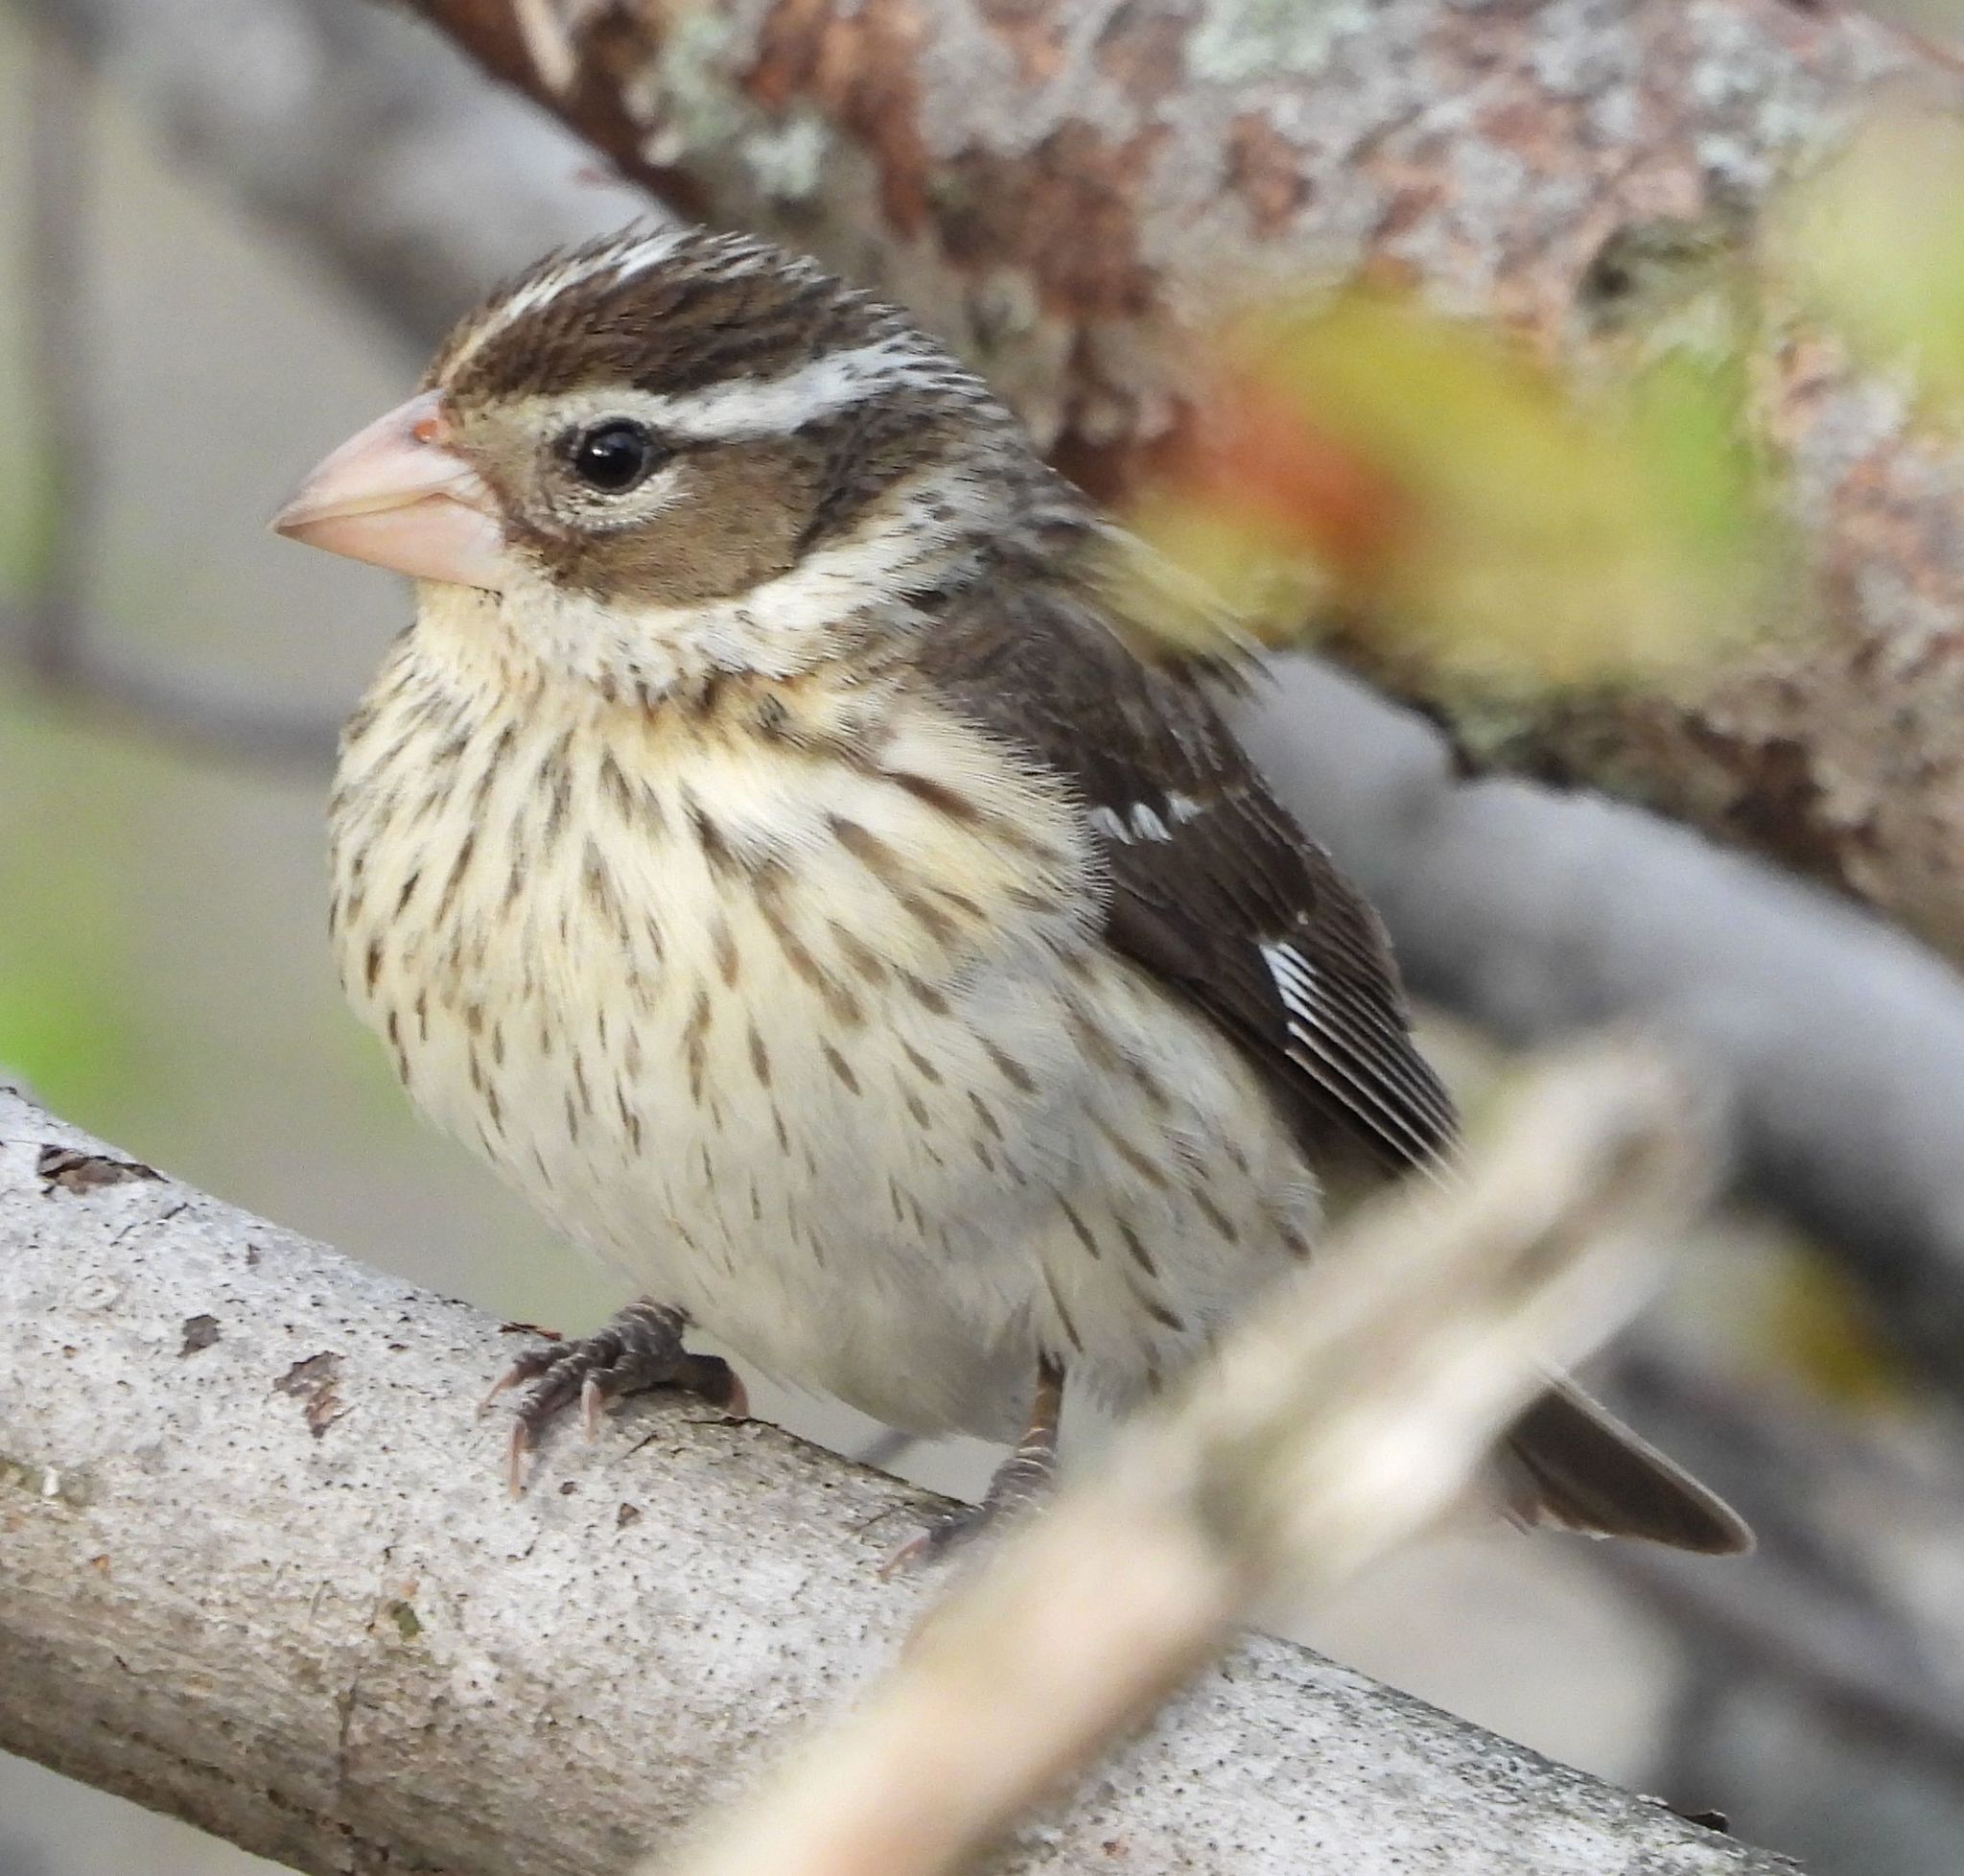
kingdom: Animalia
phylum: Chordata
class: Aves
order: Passeriformes
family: Cardinalidae
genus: Pheucticus
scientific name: Pheucticus ludovicianus
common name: Rose-breasted grosbeak
